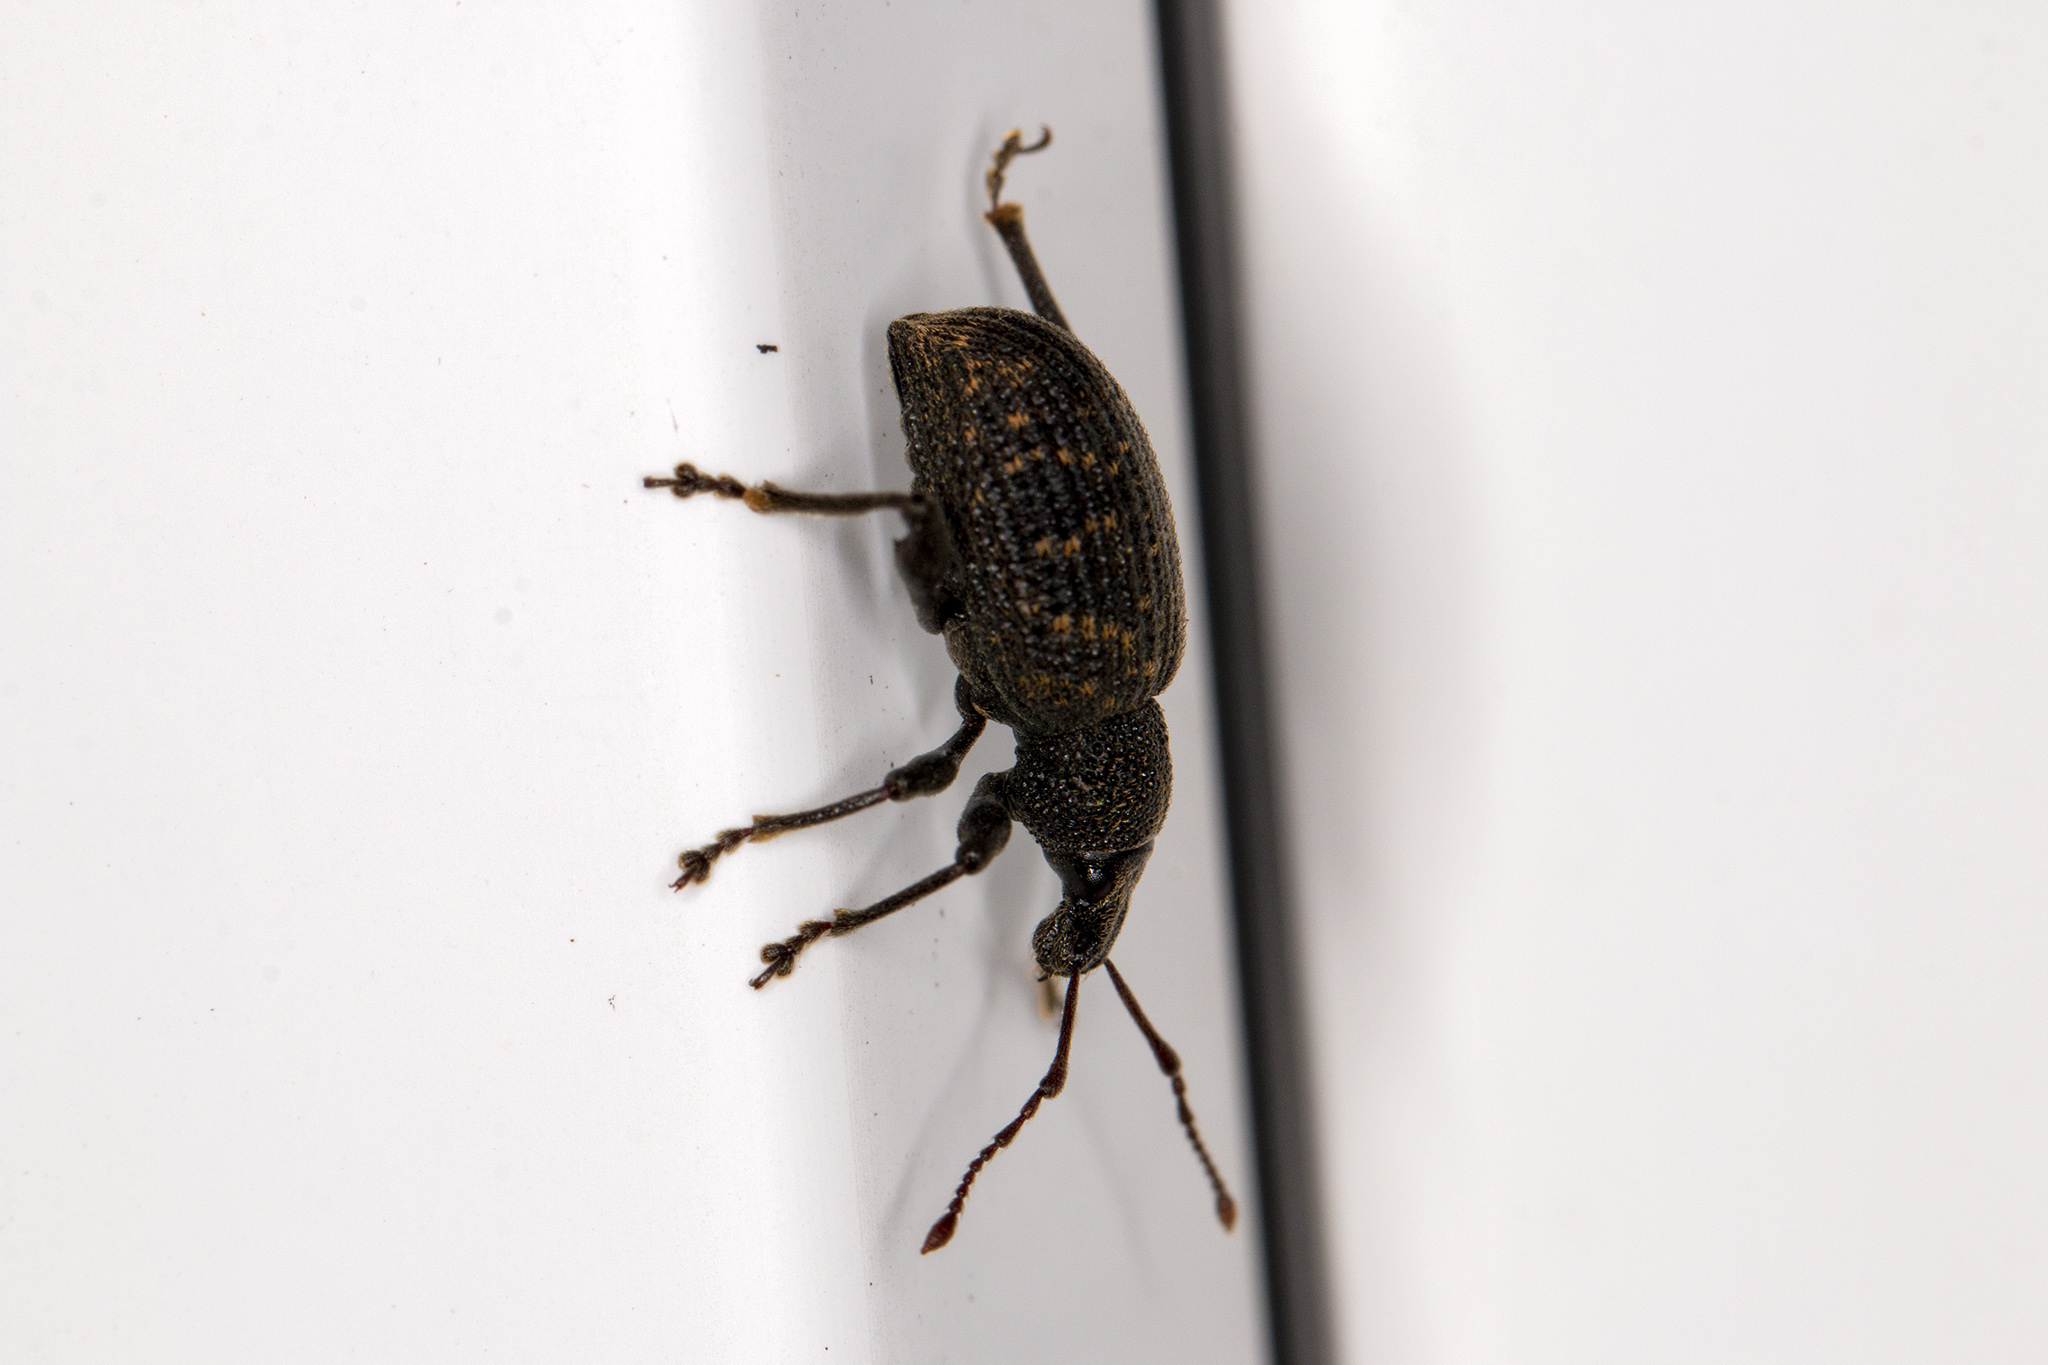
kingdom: Animalia
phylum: Arthropoda
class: Insecta
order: Coleoptera
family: Curculionidae
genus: Otiorhynchus
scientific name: Otiorhynchus sulcatus
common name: Black vine weevil
